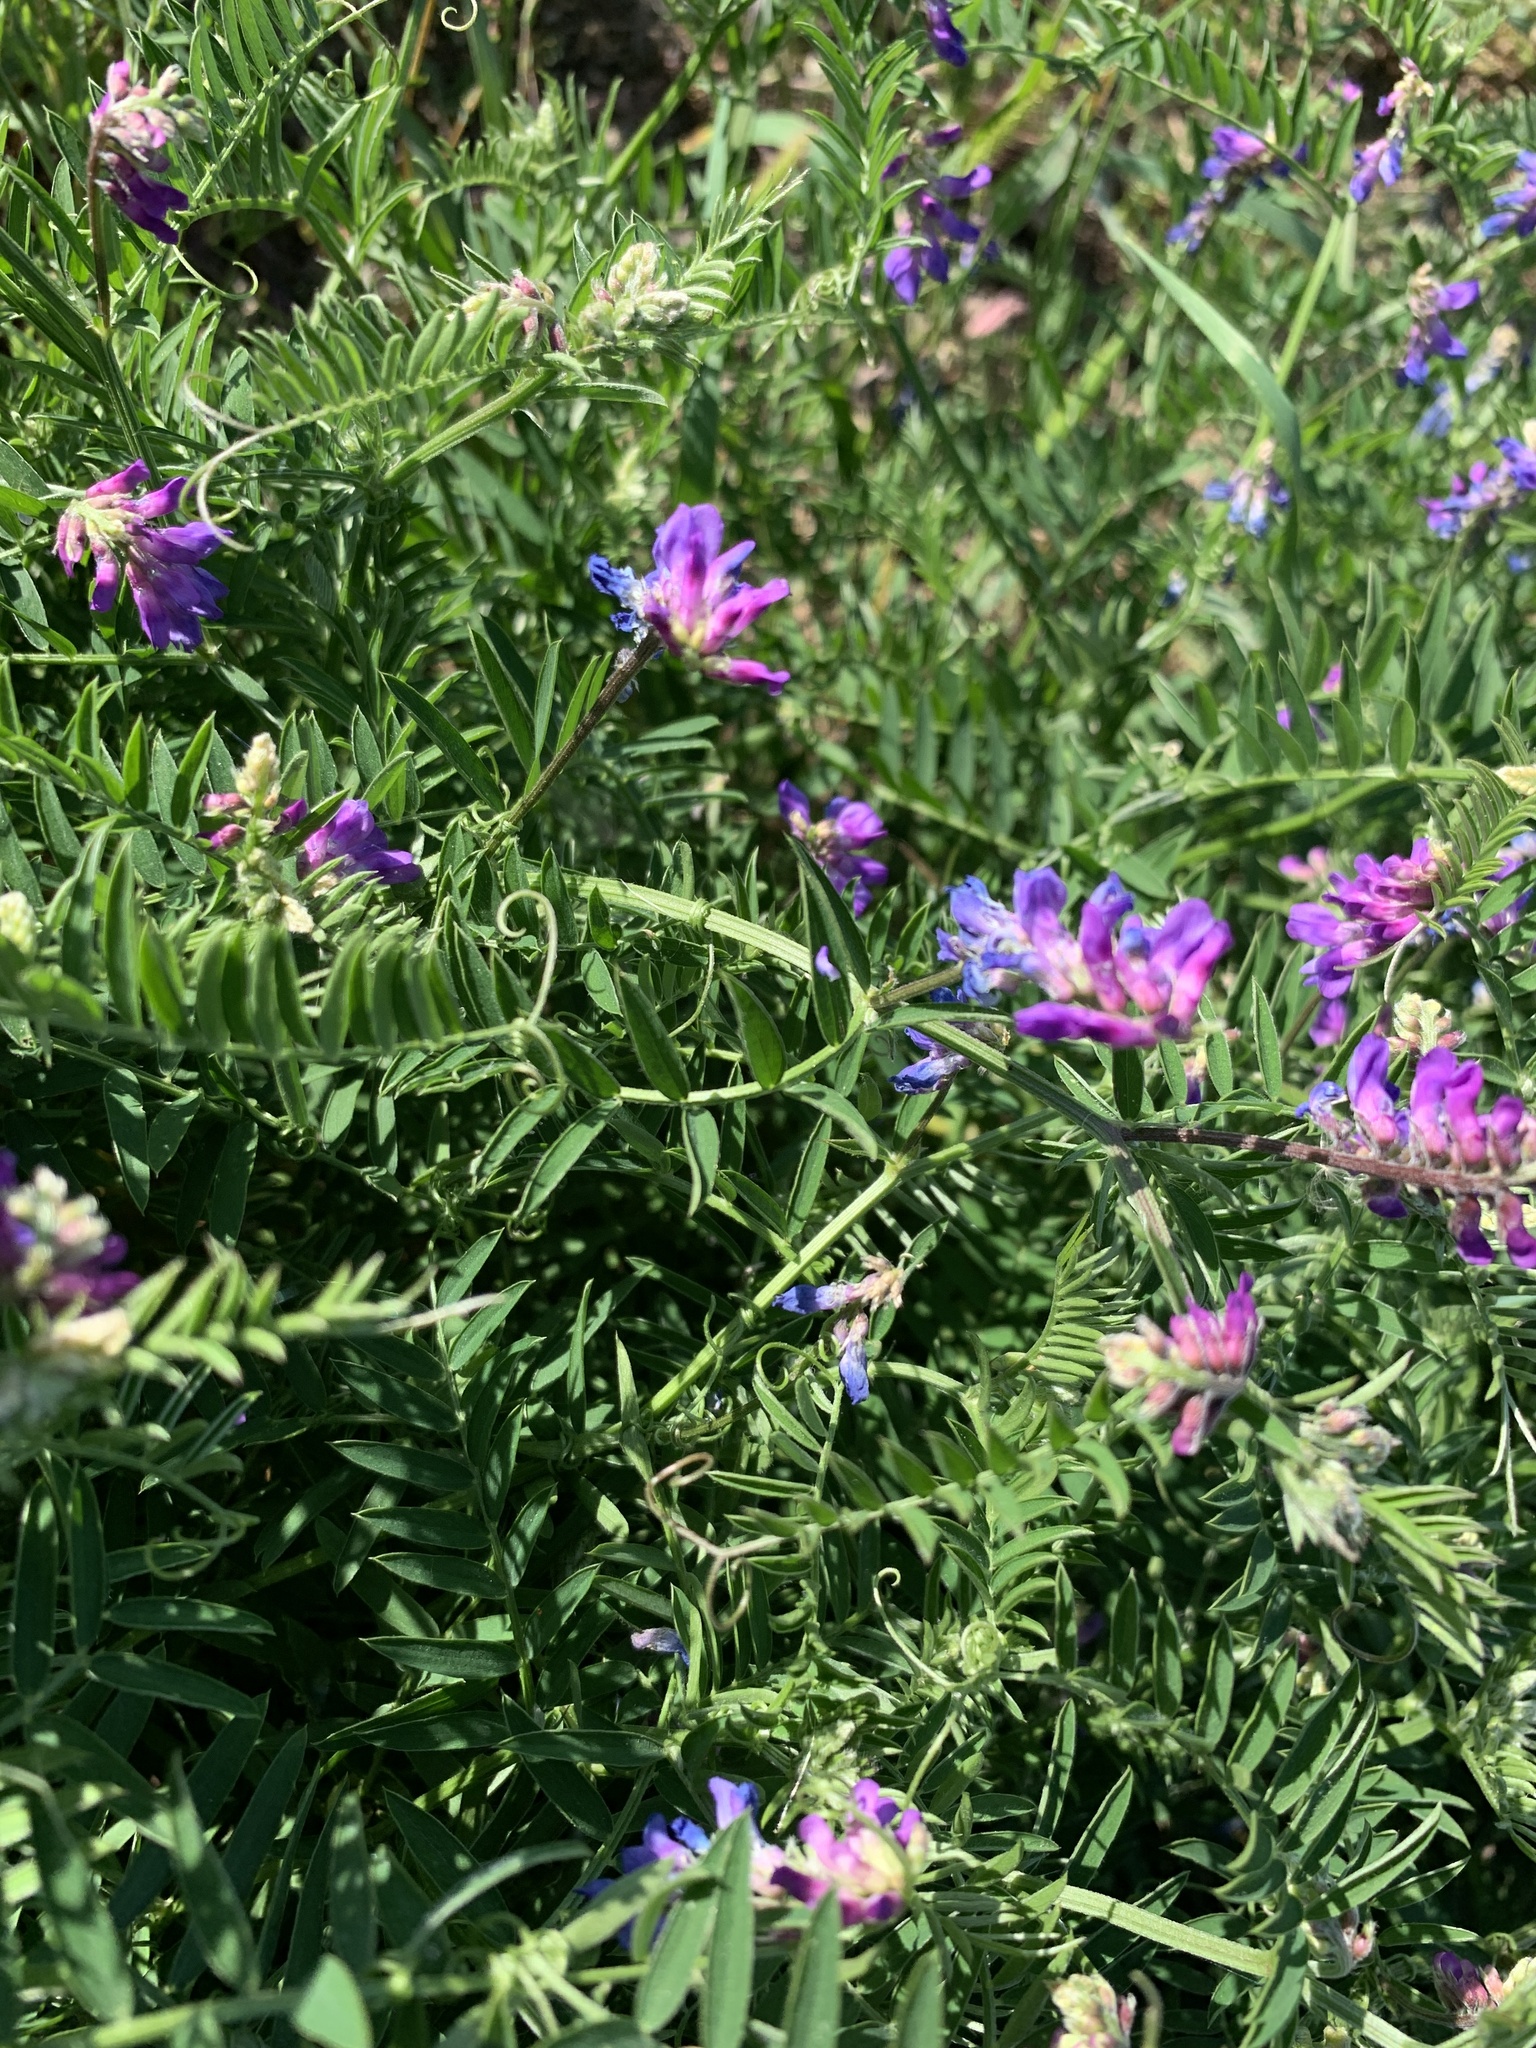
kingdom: Plantae
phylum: Tracheophyta
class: Magnoliopsida
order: Fabales
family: Fabaceae
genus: Vicia
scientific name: Vicia cracca
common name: Bird vetch
